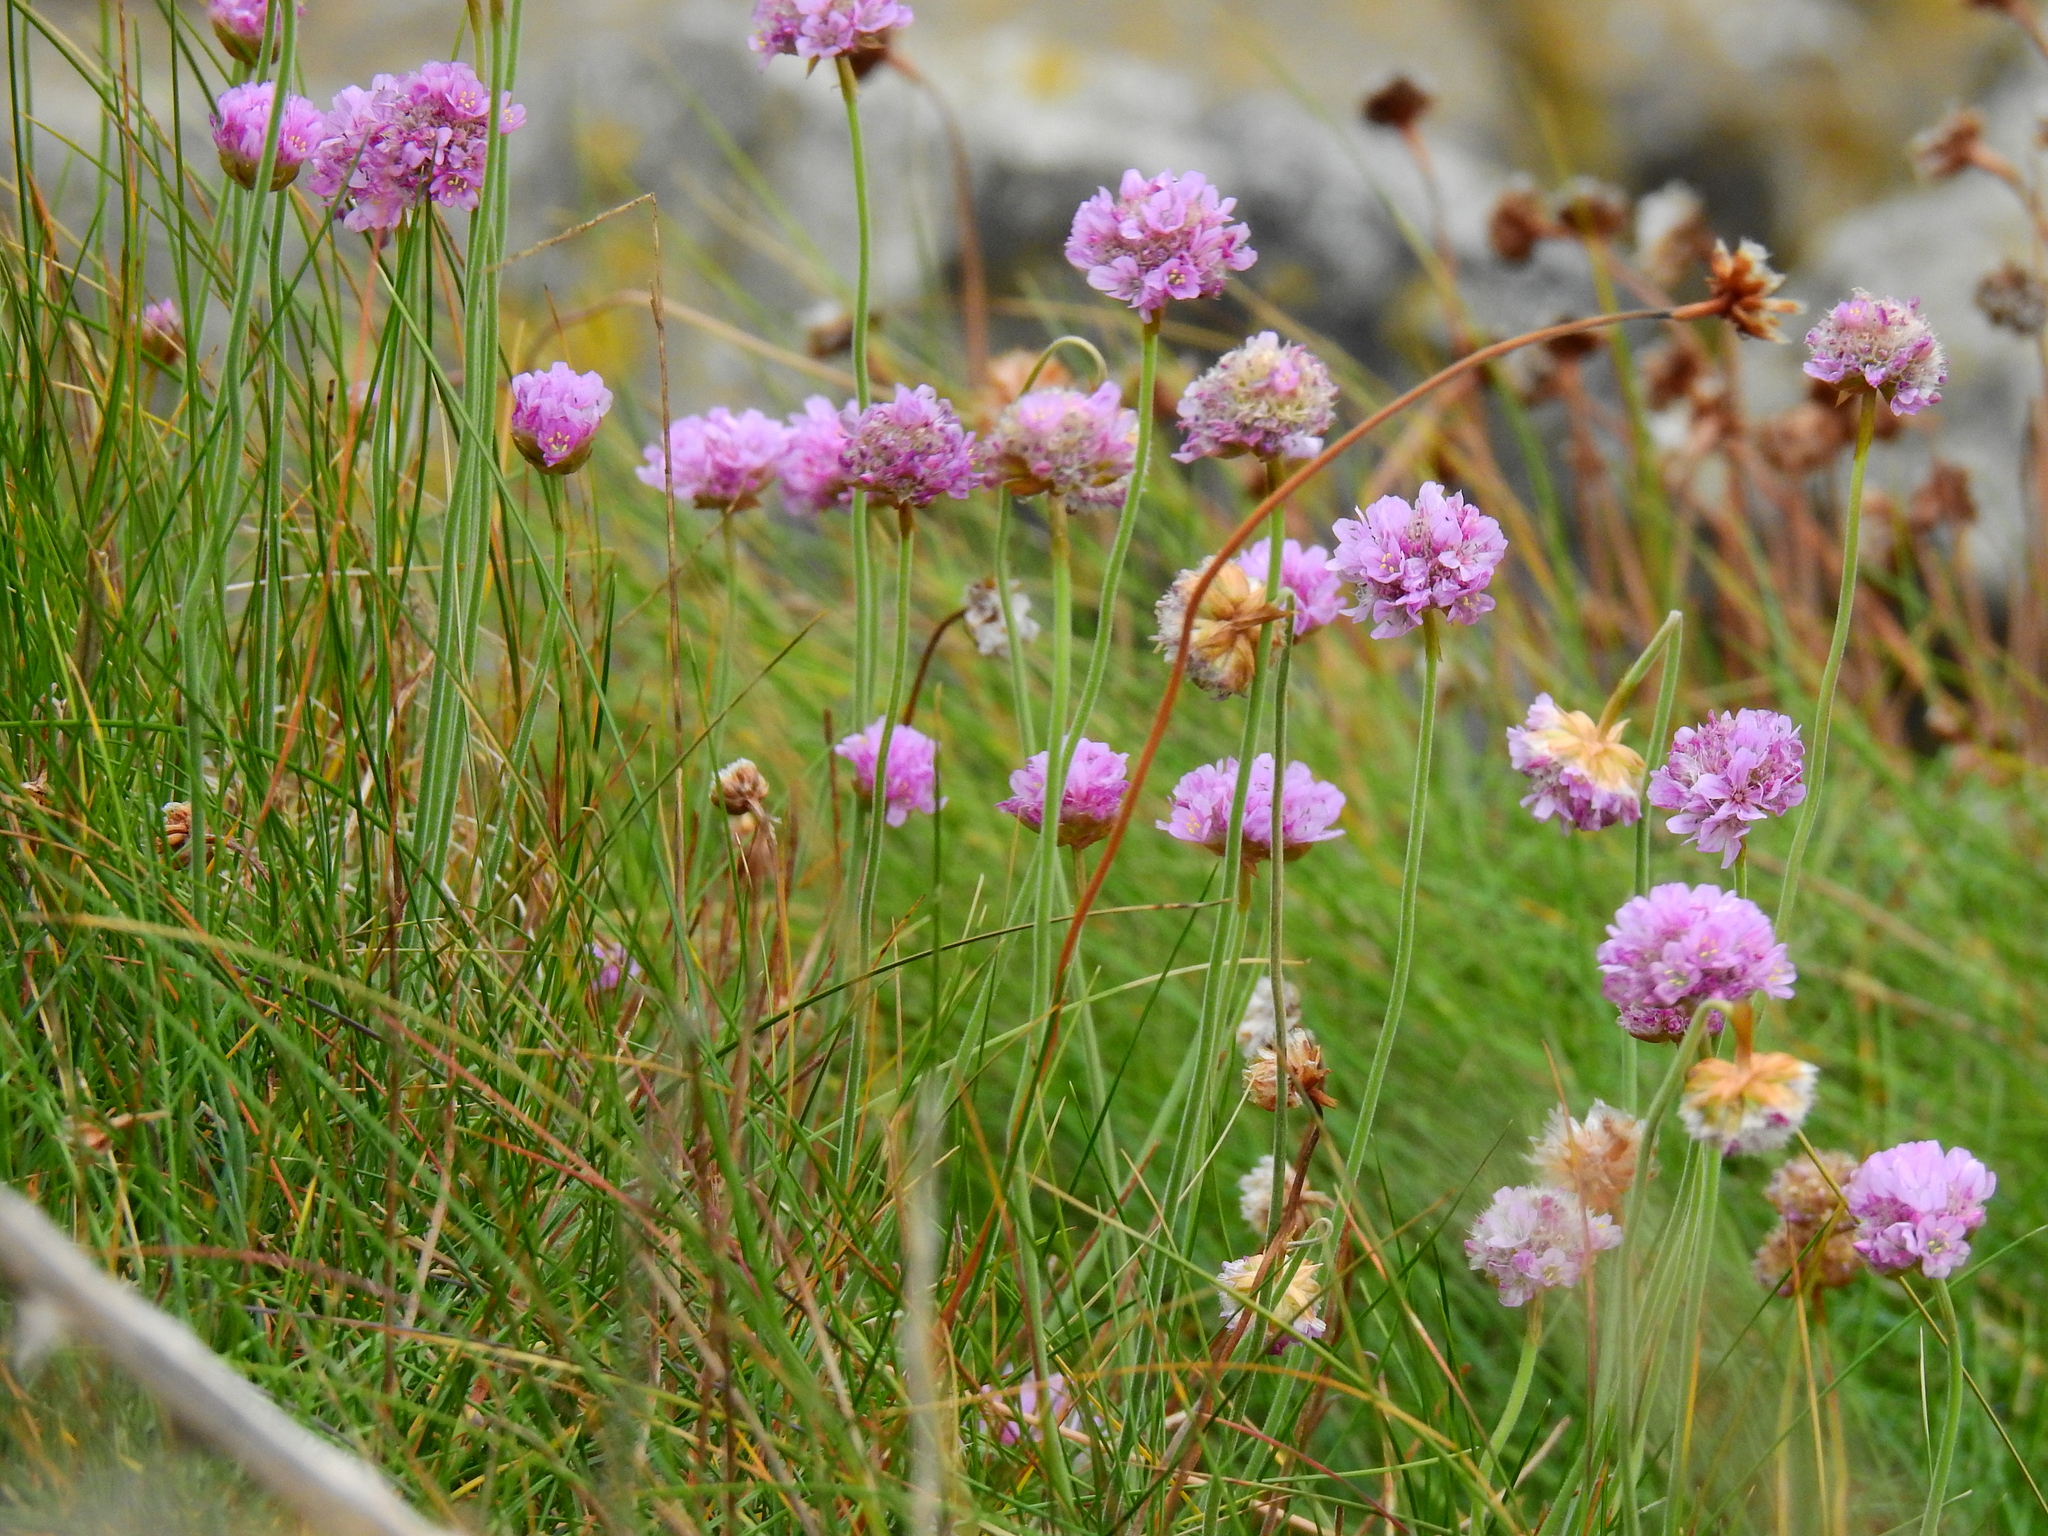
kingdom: Plantae
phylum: Tracheophyta
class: Magnoliopsida
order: Caryophyllales
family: Plumbaginaceae
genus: Armeria
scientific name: Armeria maritima
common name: Thrift
